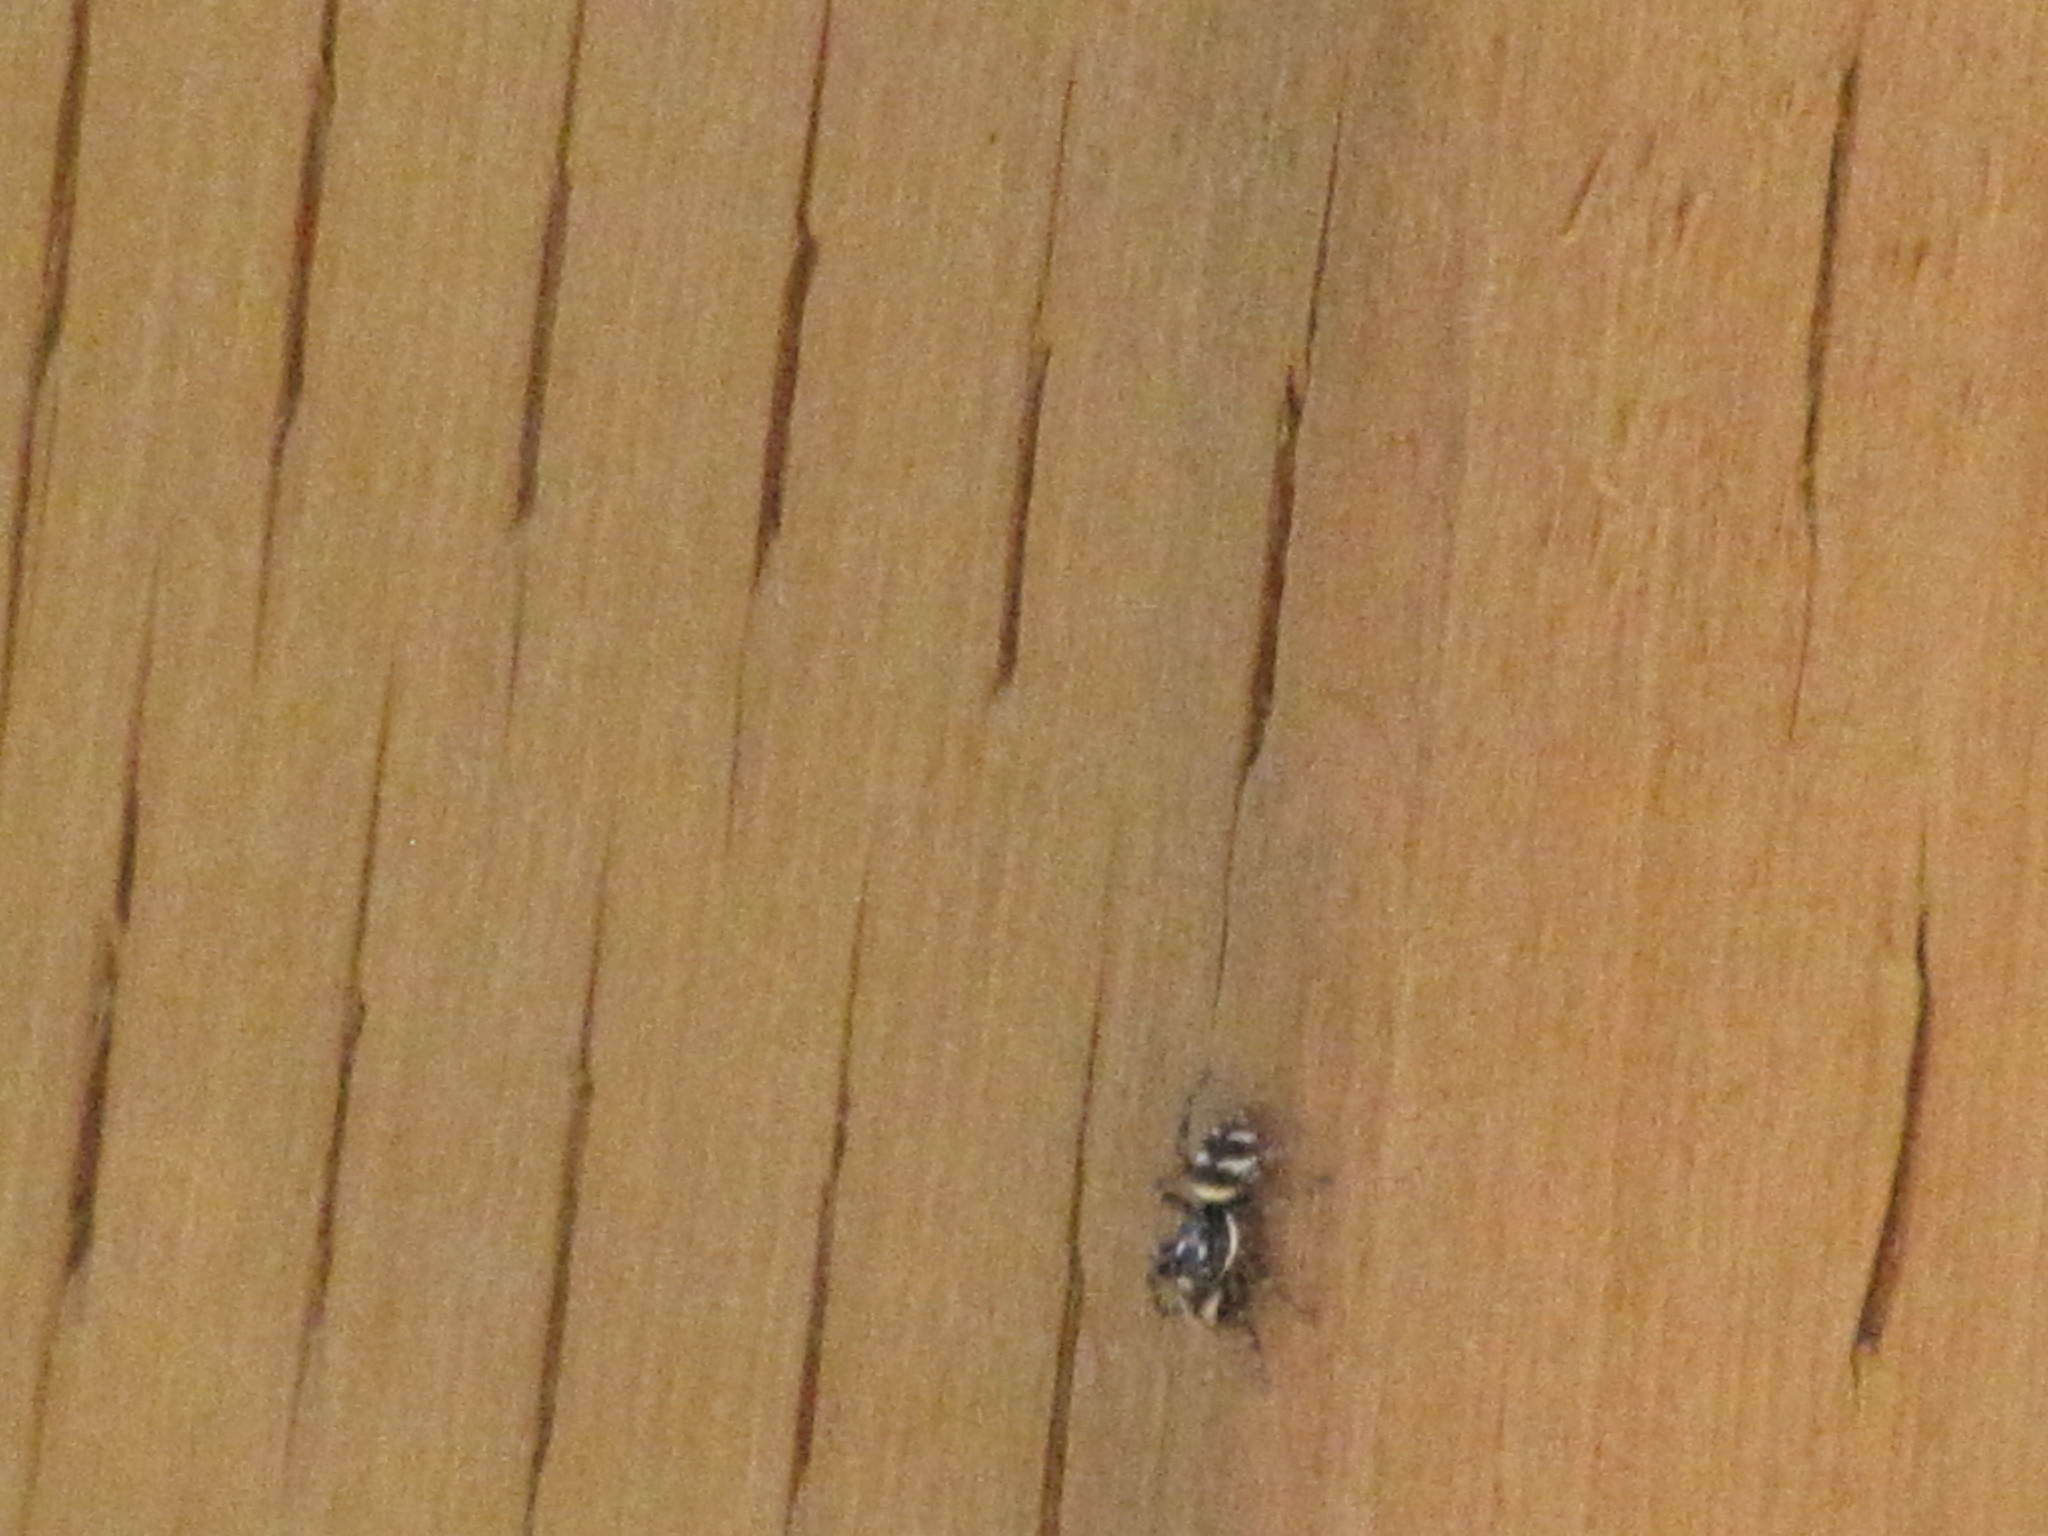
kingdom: Animalia
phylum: Arthropoda
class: Arachnida
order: Araneae
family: Salticidae
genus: Salticus
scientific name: Salticus scenicus
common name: Zebra jumper
